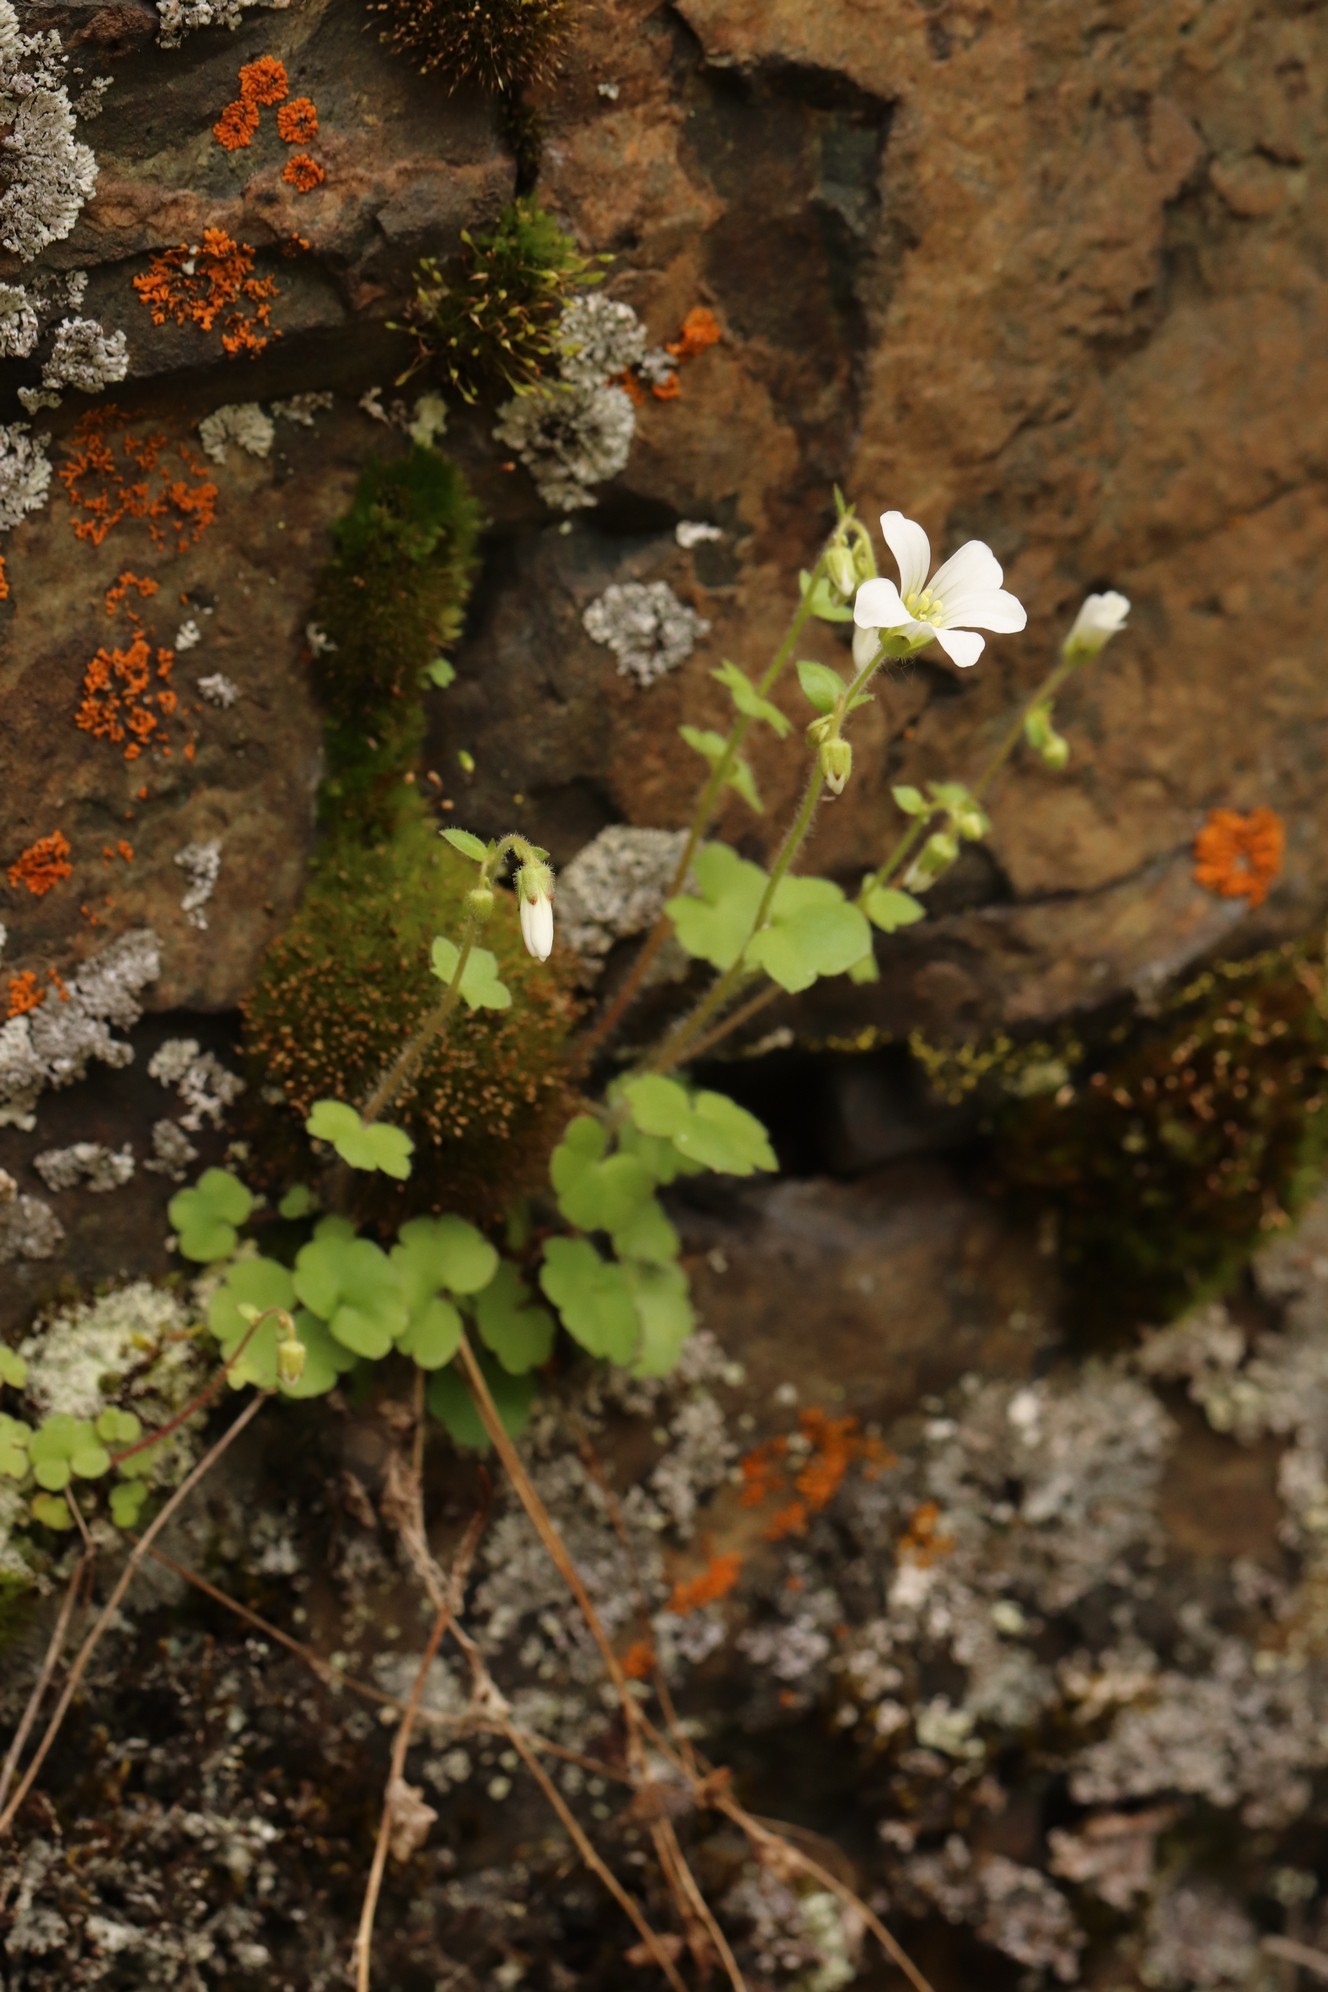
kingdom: Plantae
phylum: Tracheophyta
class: Magnoliopsida
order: Saxifragales
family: Saxifragaceae
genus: Saxifraga
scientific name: Saxifraga sibirica
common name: Siberian saxifrage
